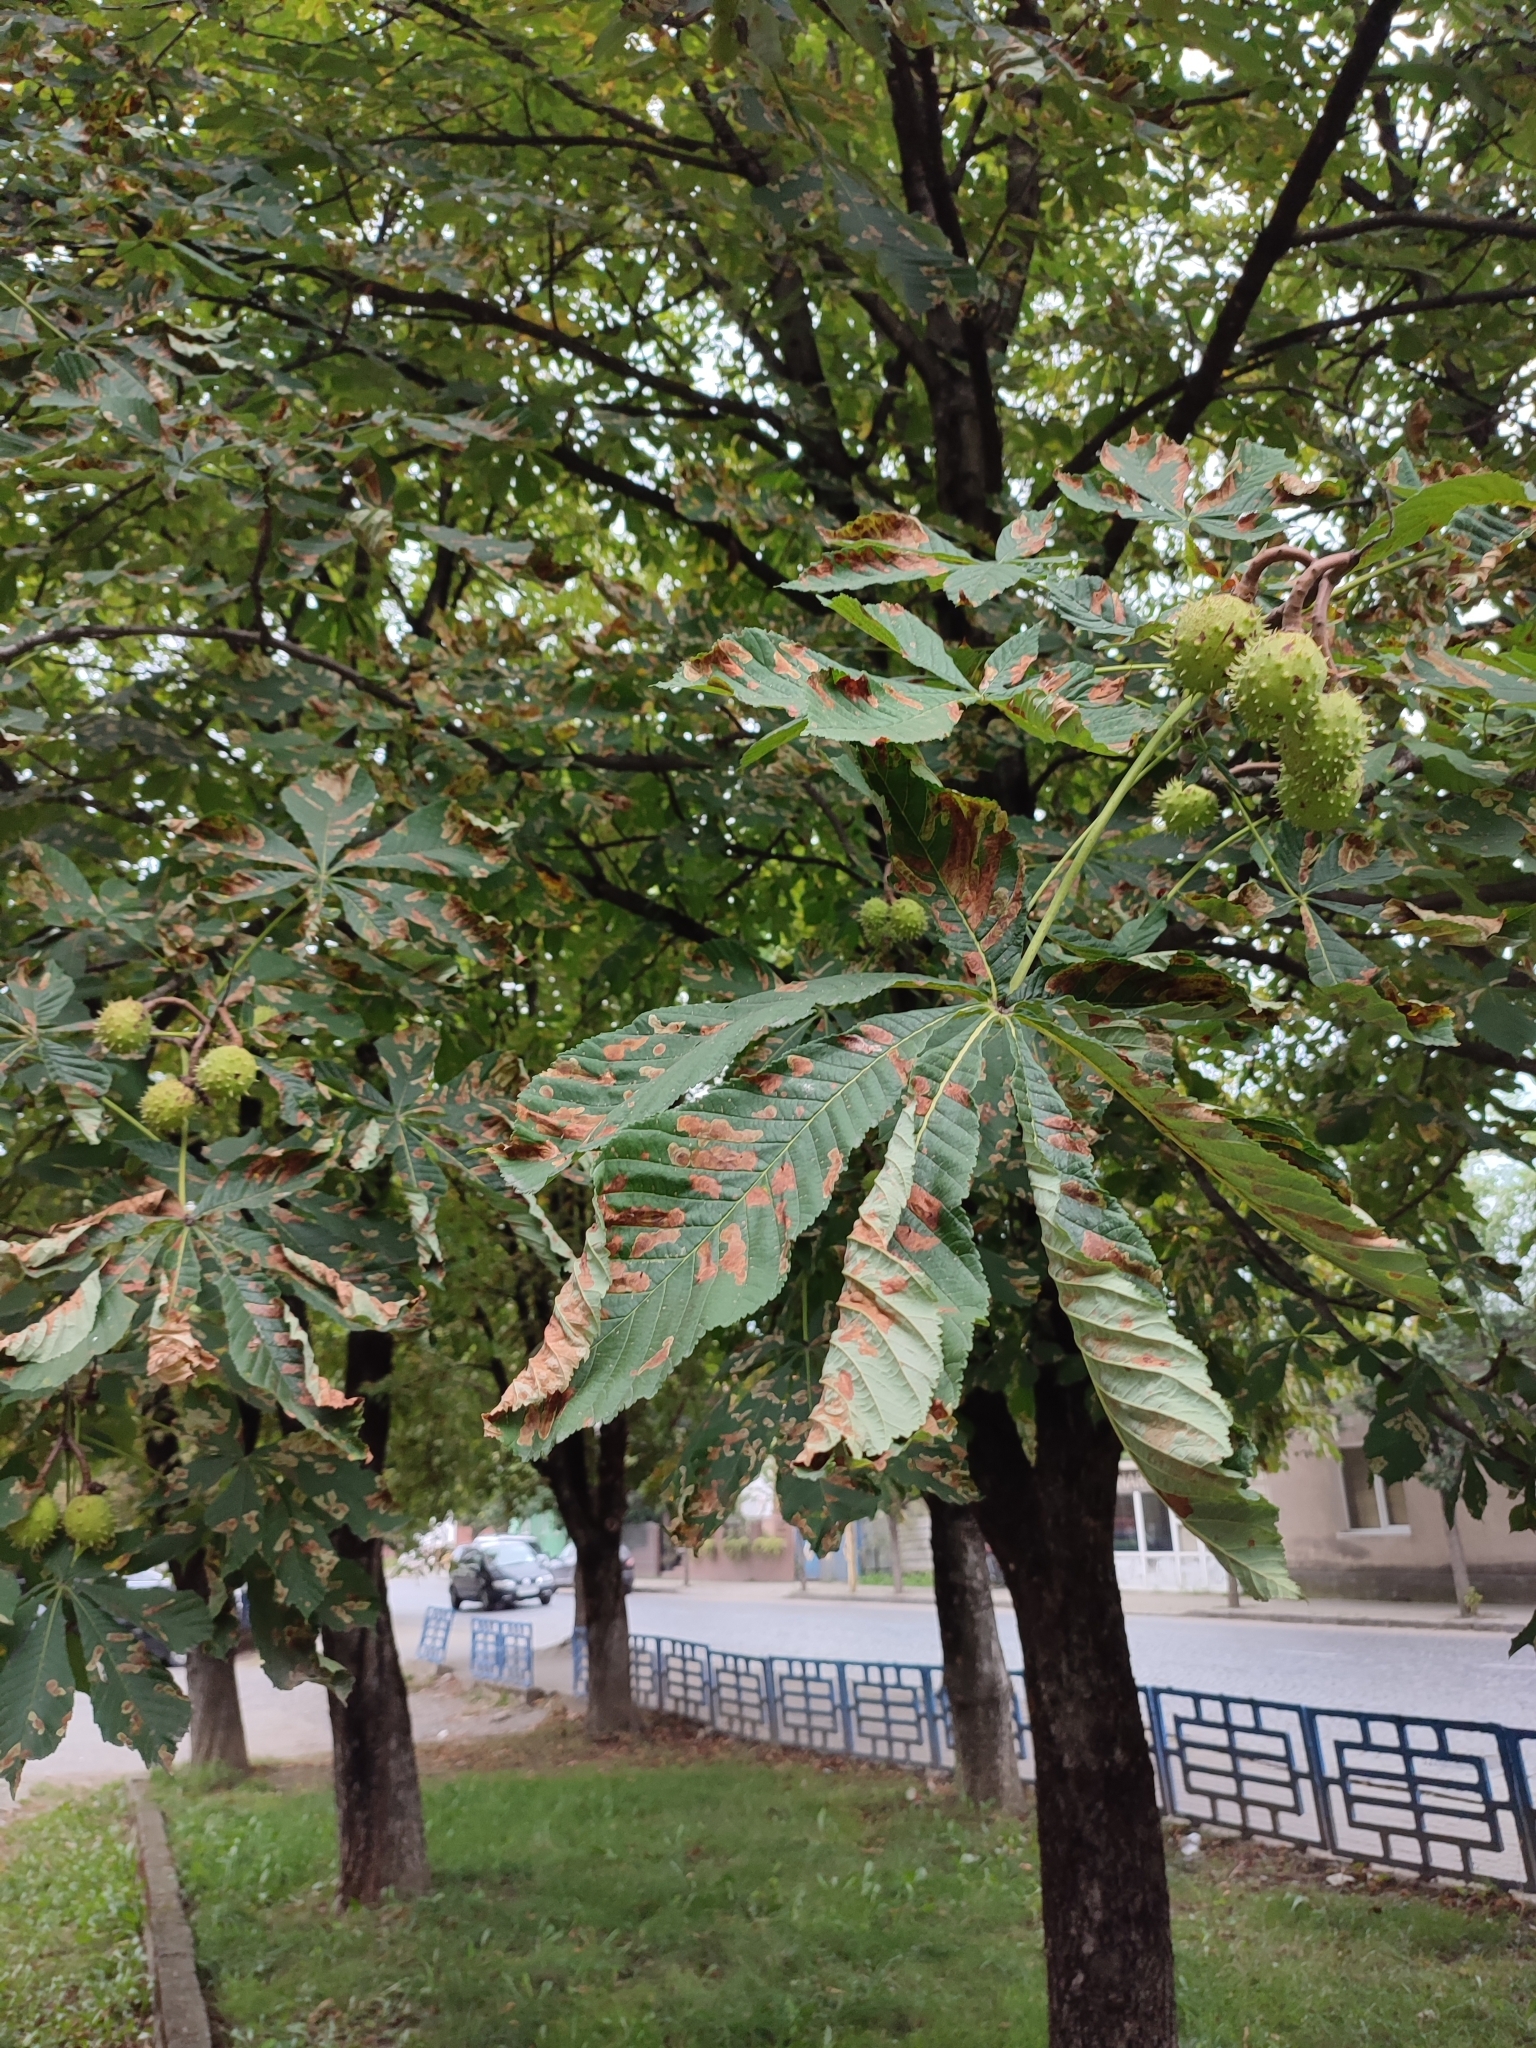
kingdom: Animalia
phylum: Arthropoda
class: Insecta
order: Lepidoptera
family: Gracillariidae
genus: Cameraria
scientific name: Cameraria ohridella
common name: Horse-chestnut leaf-miner
